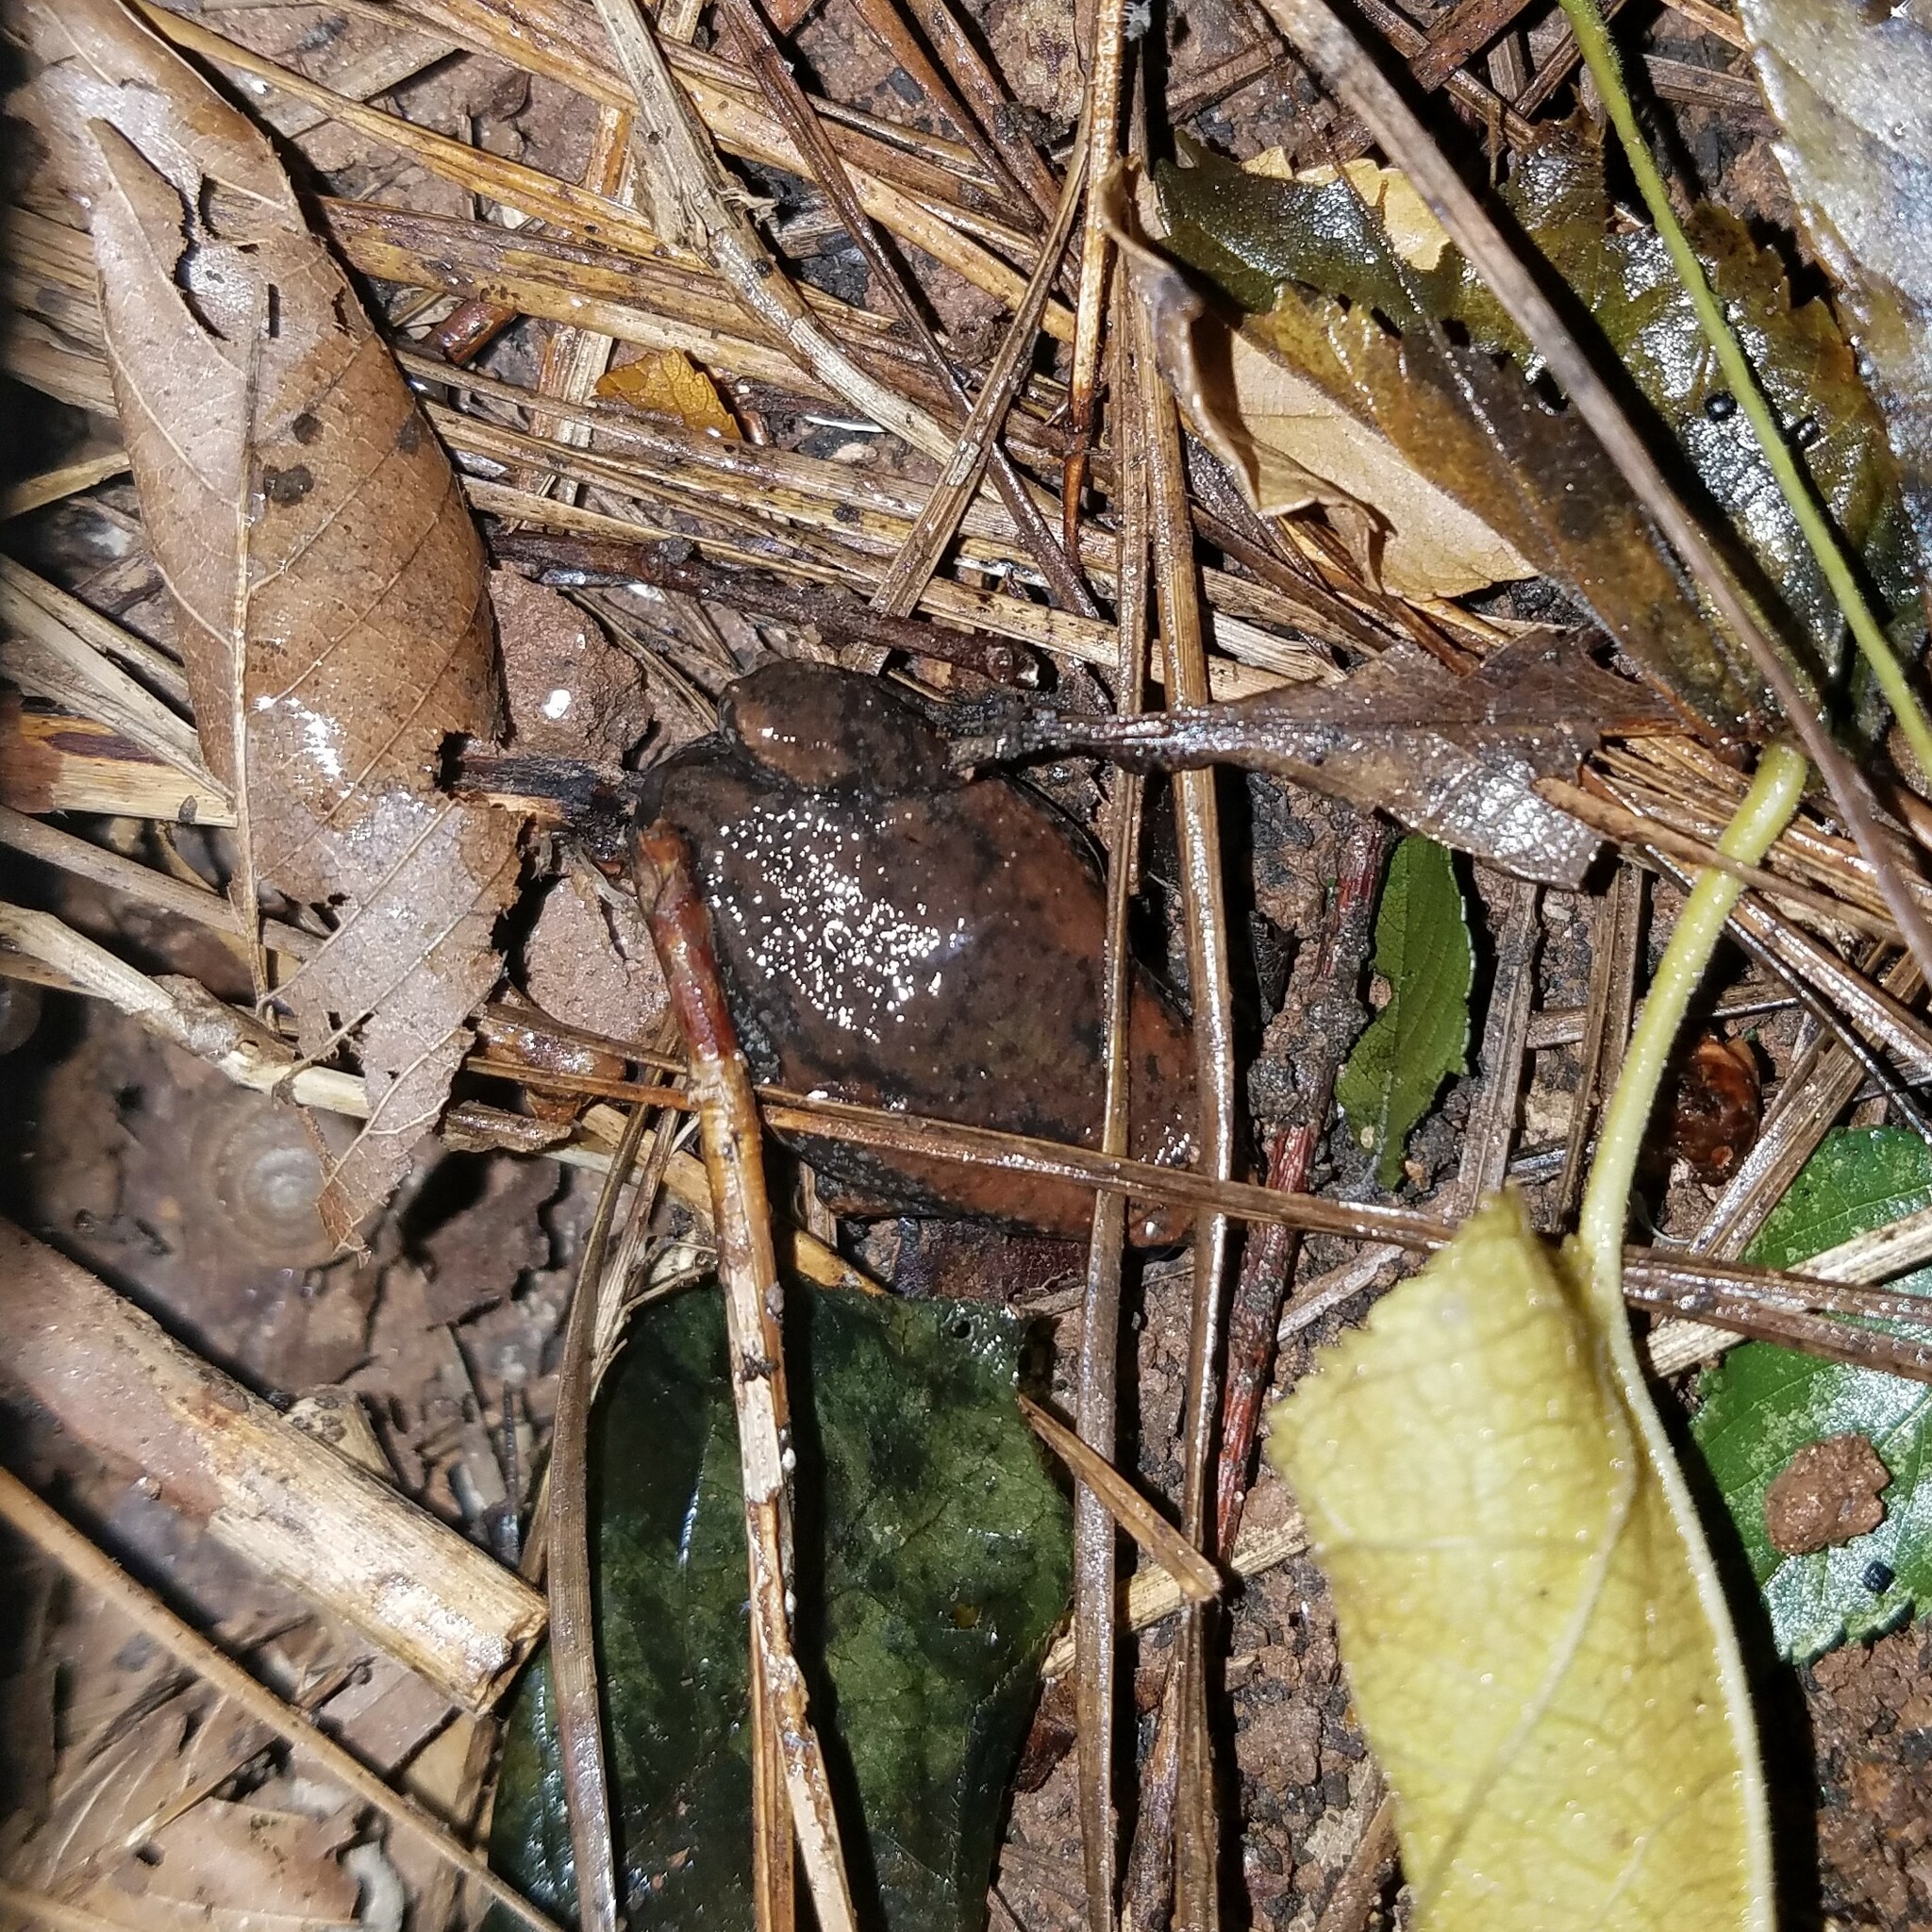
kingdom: Animalia
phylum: Chordata
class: Amphibia
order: Anura
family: Microhylidae
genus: Gastrophryne
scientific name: Gastrophryne carolinensis
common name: Eastern narrowmouth toad
